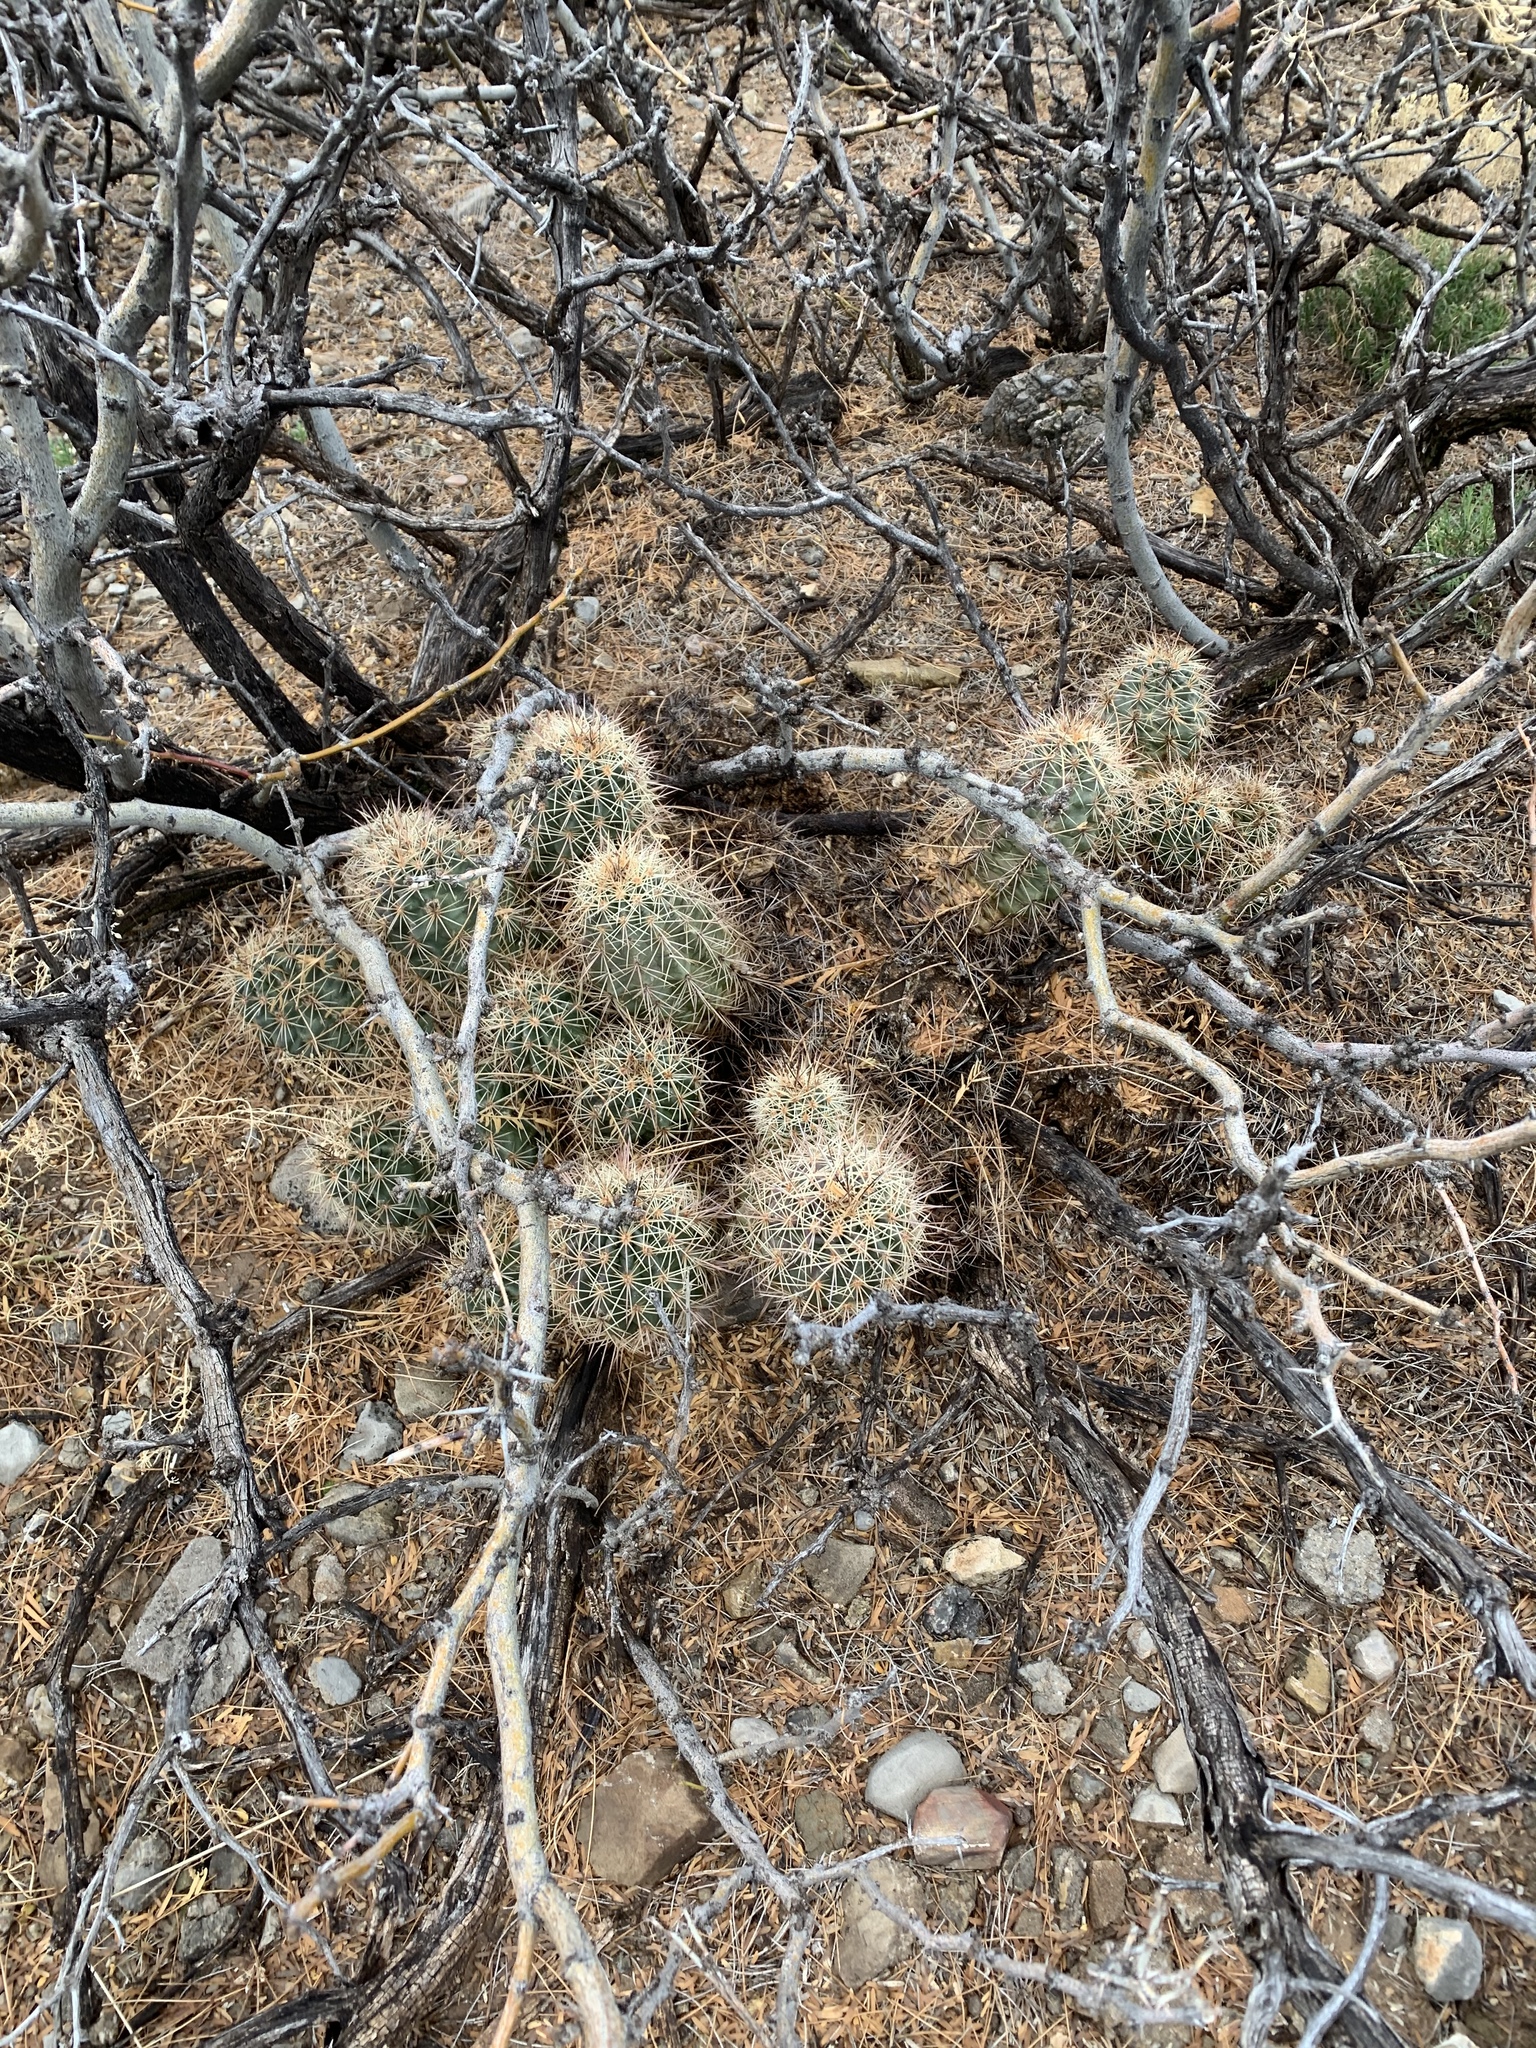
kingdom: Plantae
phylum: Tracheophyta
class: Magnoliopsida
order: Caryophyllales
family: Cactaceae
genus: Echinocereus
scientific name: Echinocereus coccineus
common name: Scarlet hedgehog cactus
